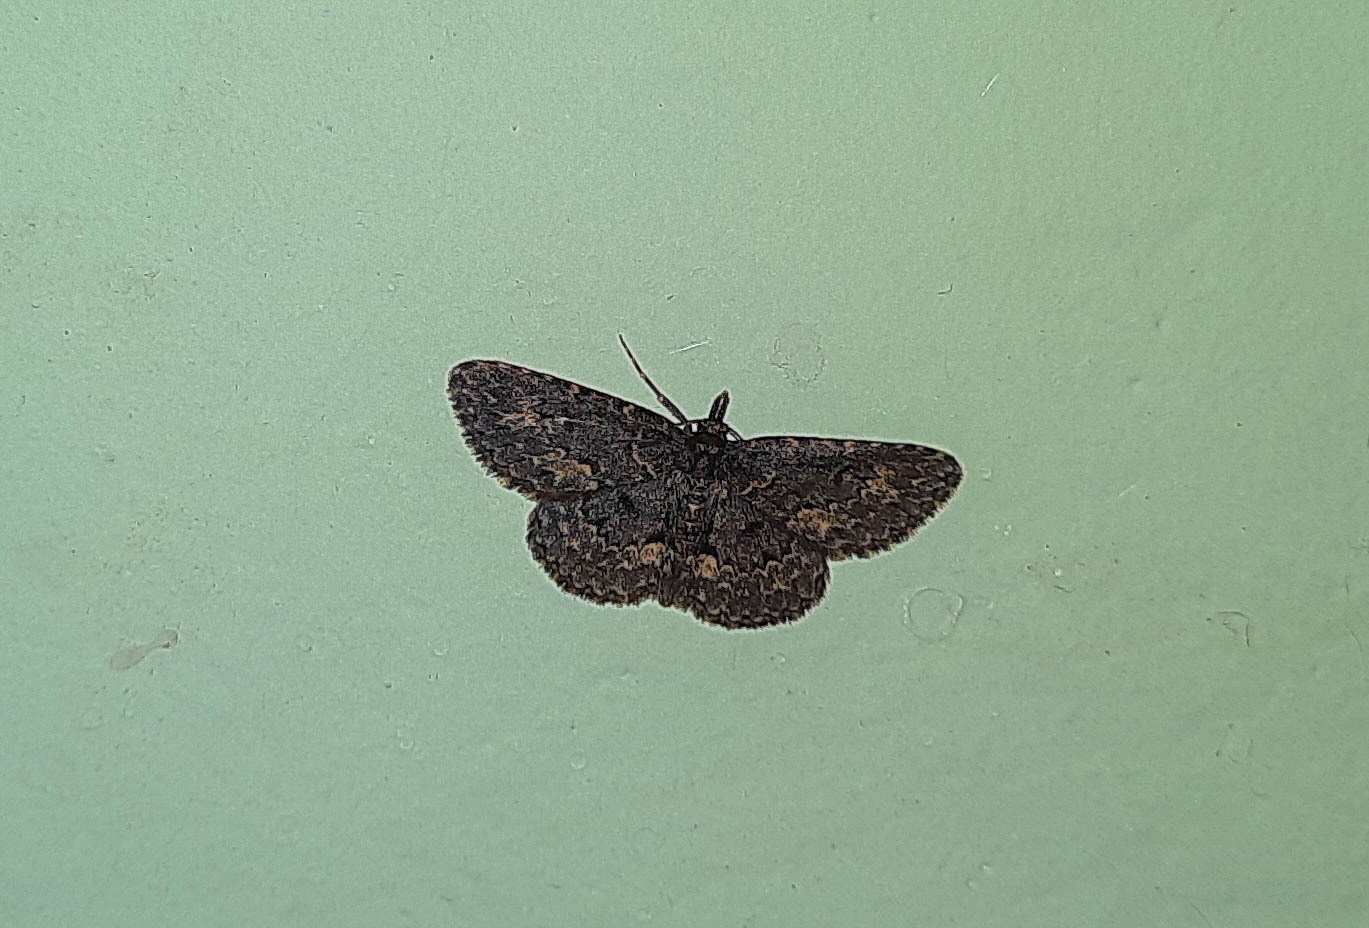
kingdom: Animalia
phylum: Arthropoda
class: Insecta
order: Lepidoptera
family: Erebidae
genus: Parascotia
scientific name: Parascotia fuliginaria
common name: Waved black
